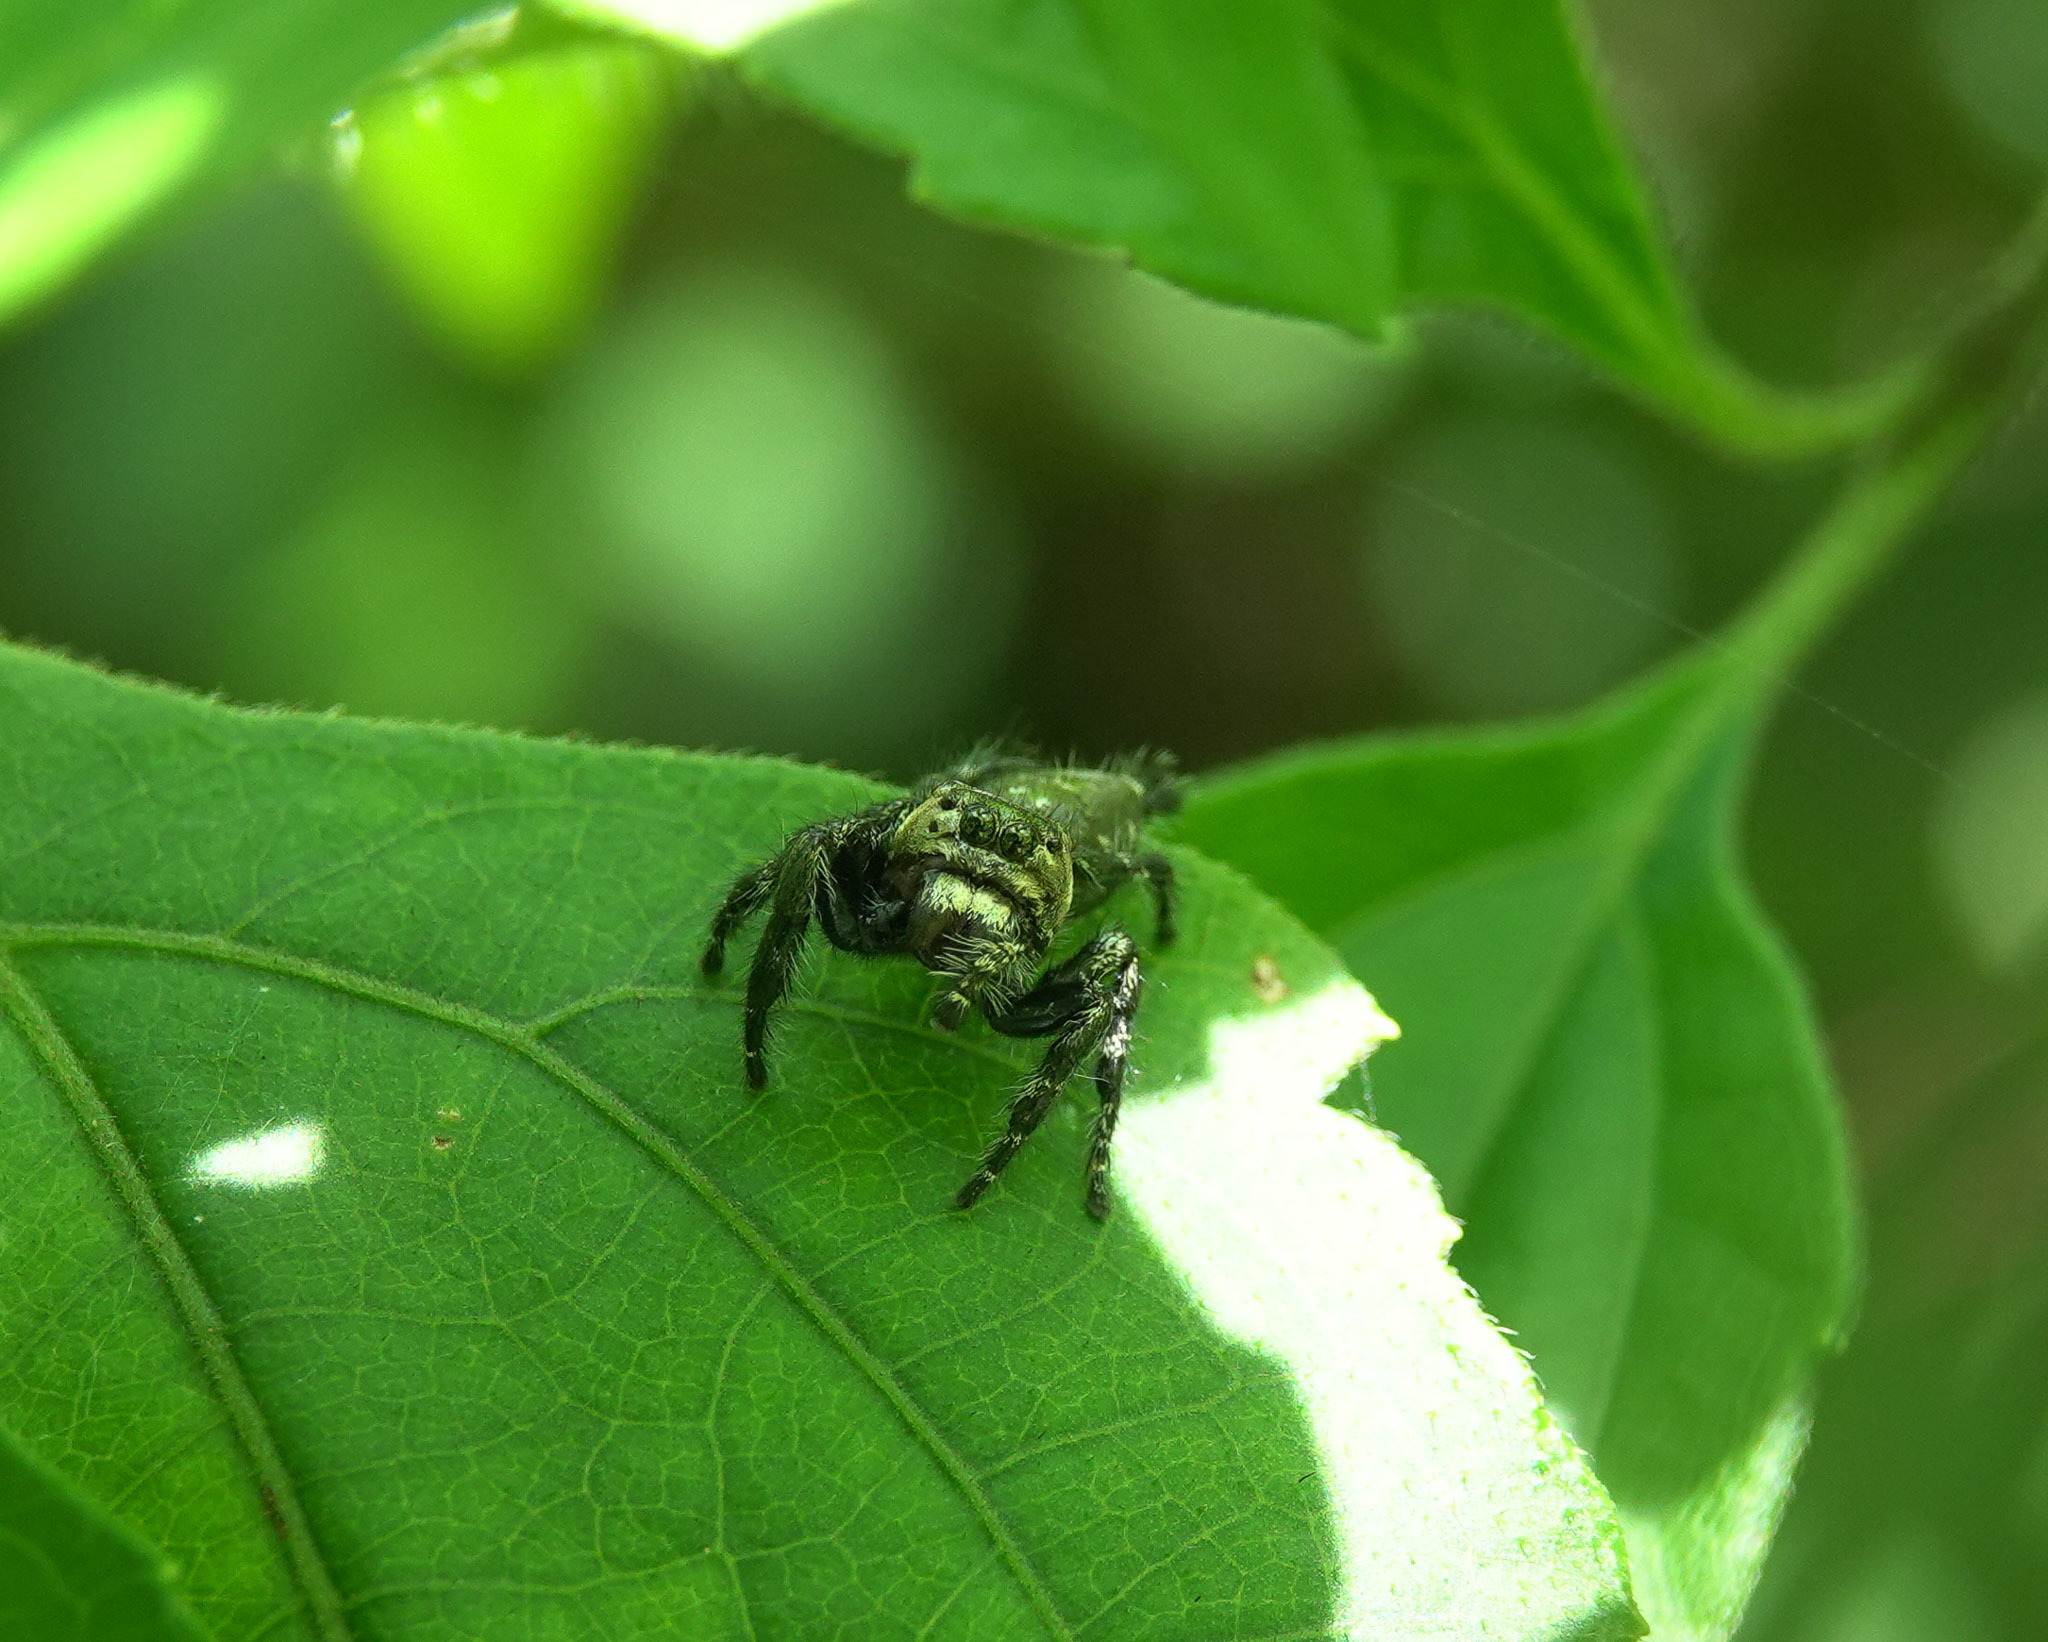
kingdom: Animalia
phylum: Arthropoda
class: Arachnida
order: Araneae
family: Salticidae
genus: Hyllus
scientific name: Hyllus semicupreus
